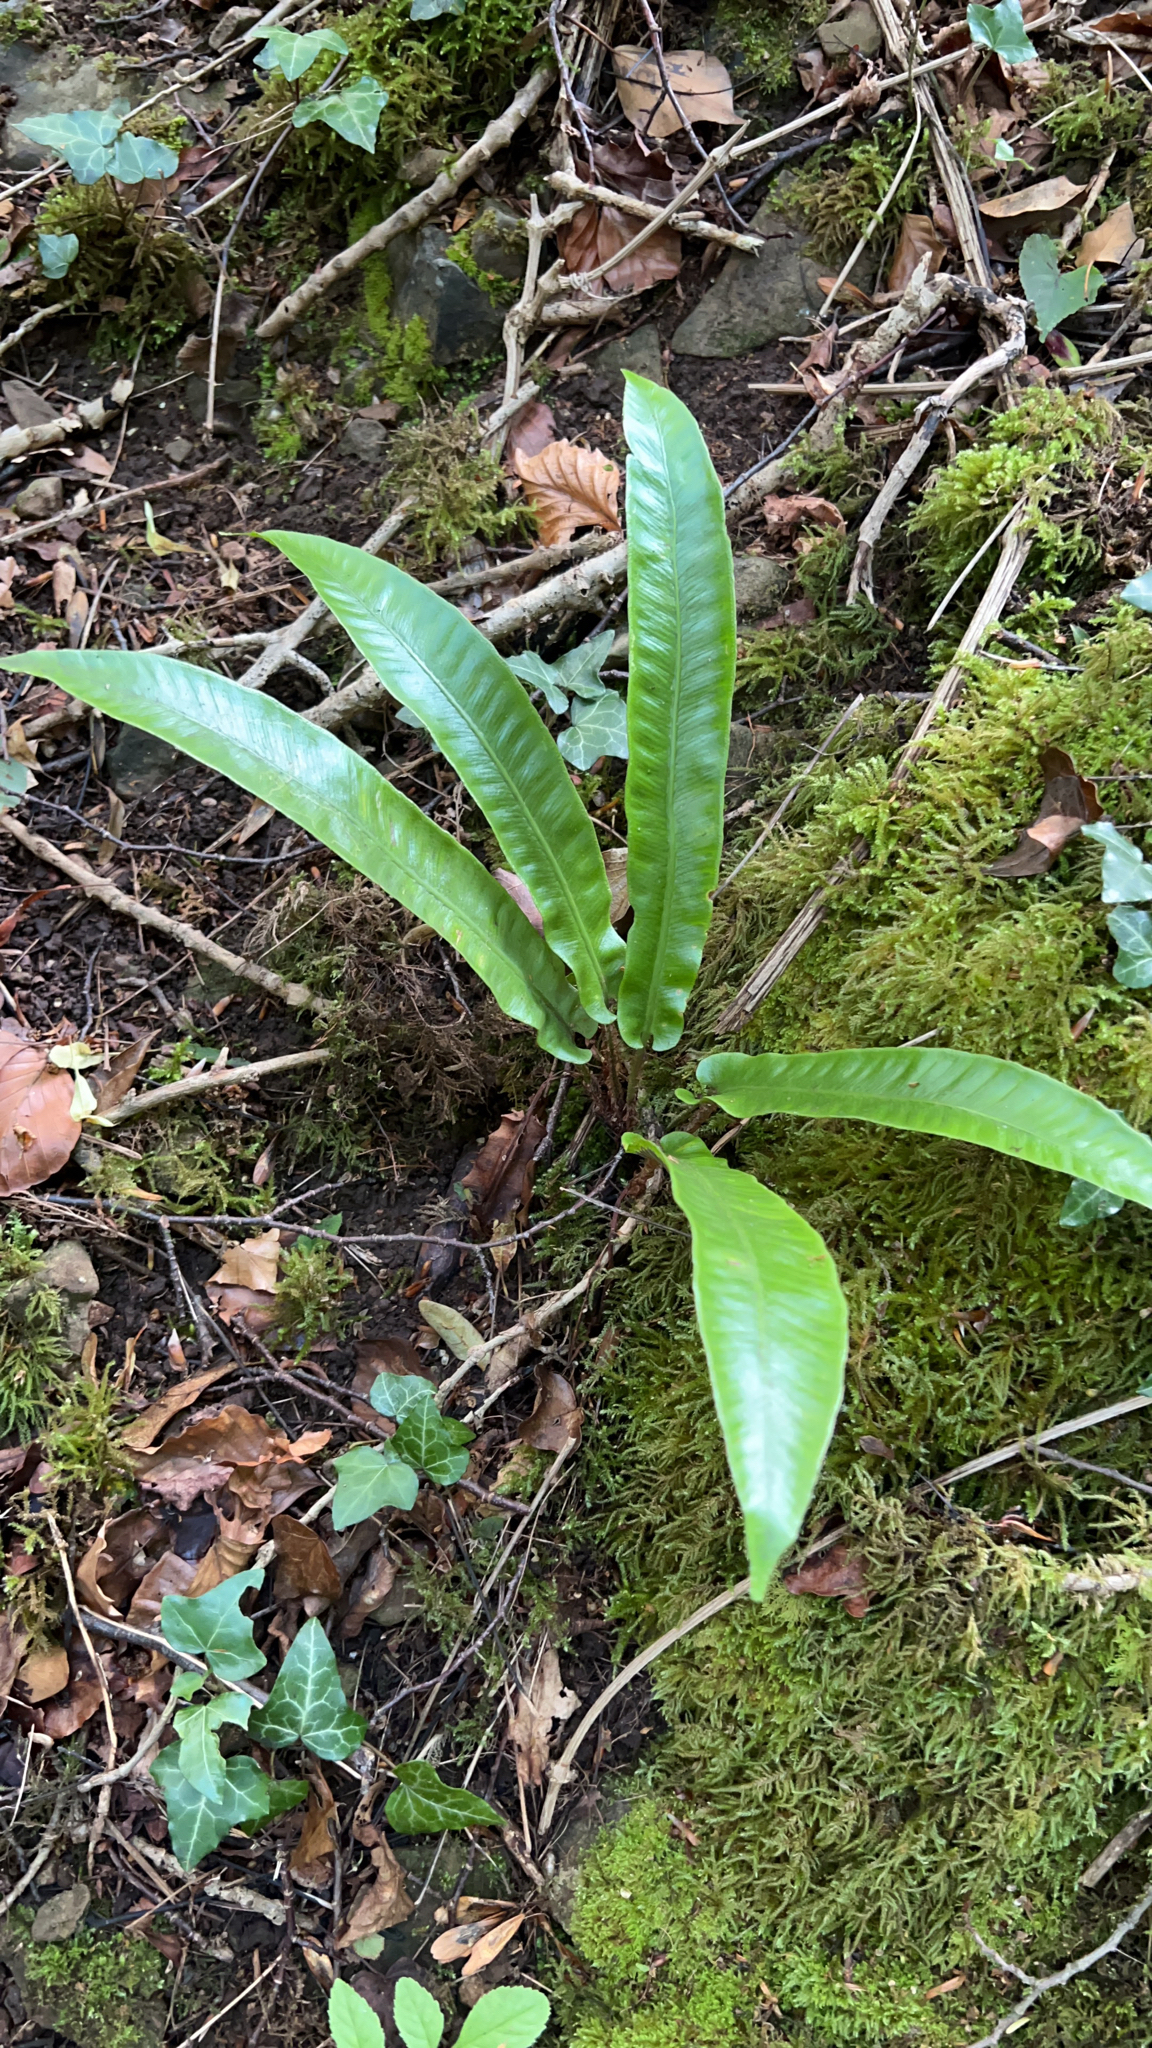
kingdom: Plantae
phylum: Tracheophyta
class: Polypodiopsida
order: Polypodiales
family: Aspleniaceae
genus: Asplenium
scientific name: Asplenium scolopendrium
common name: Hart's-tongue fern
